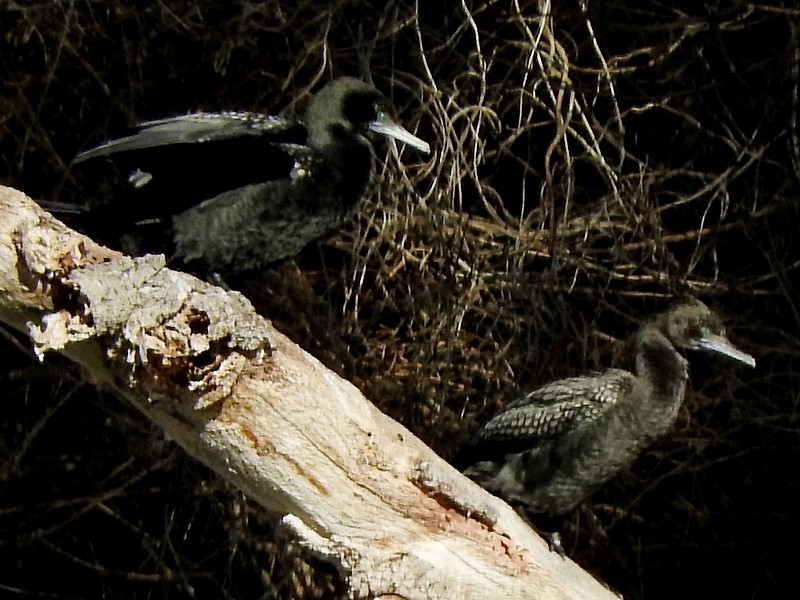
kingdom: Animalia
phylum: Chordata
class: Aves
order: Suliformes
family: Phalacrocoracidae
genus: Phalacrocorax
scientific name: Phalacrocorax sulcirostris
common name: Little black cormorant
